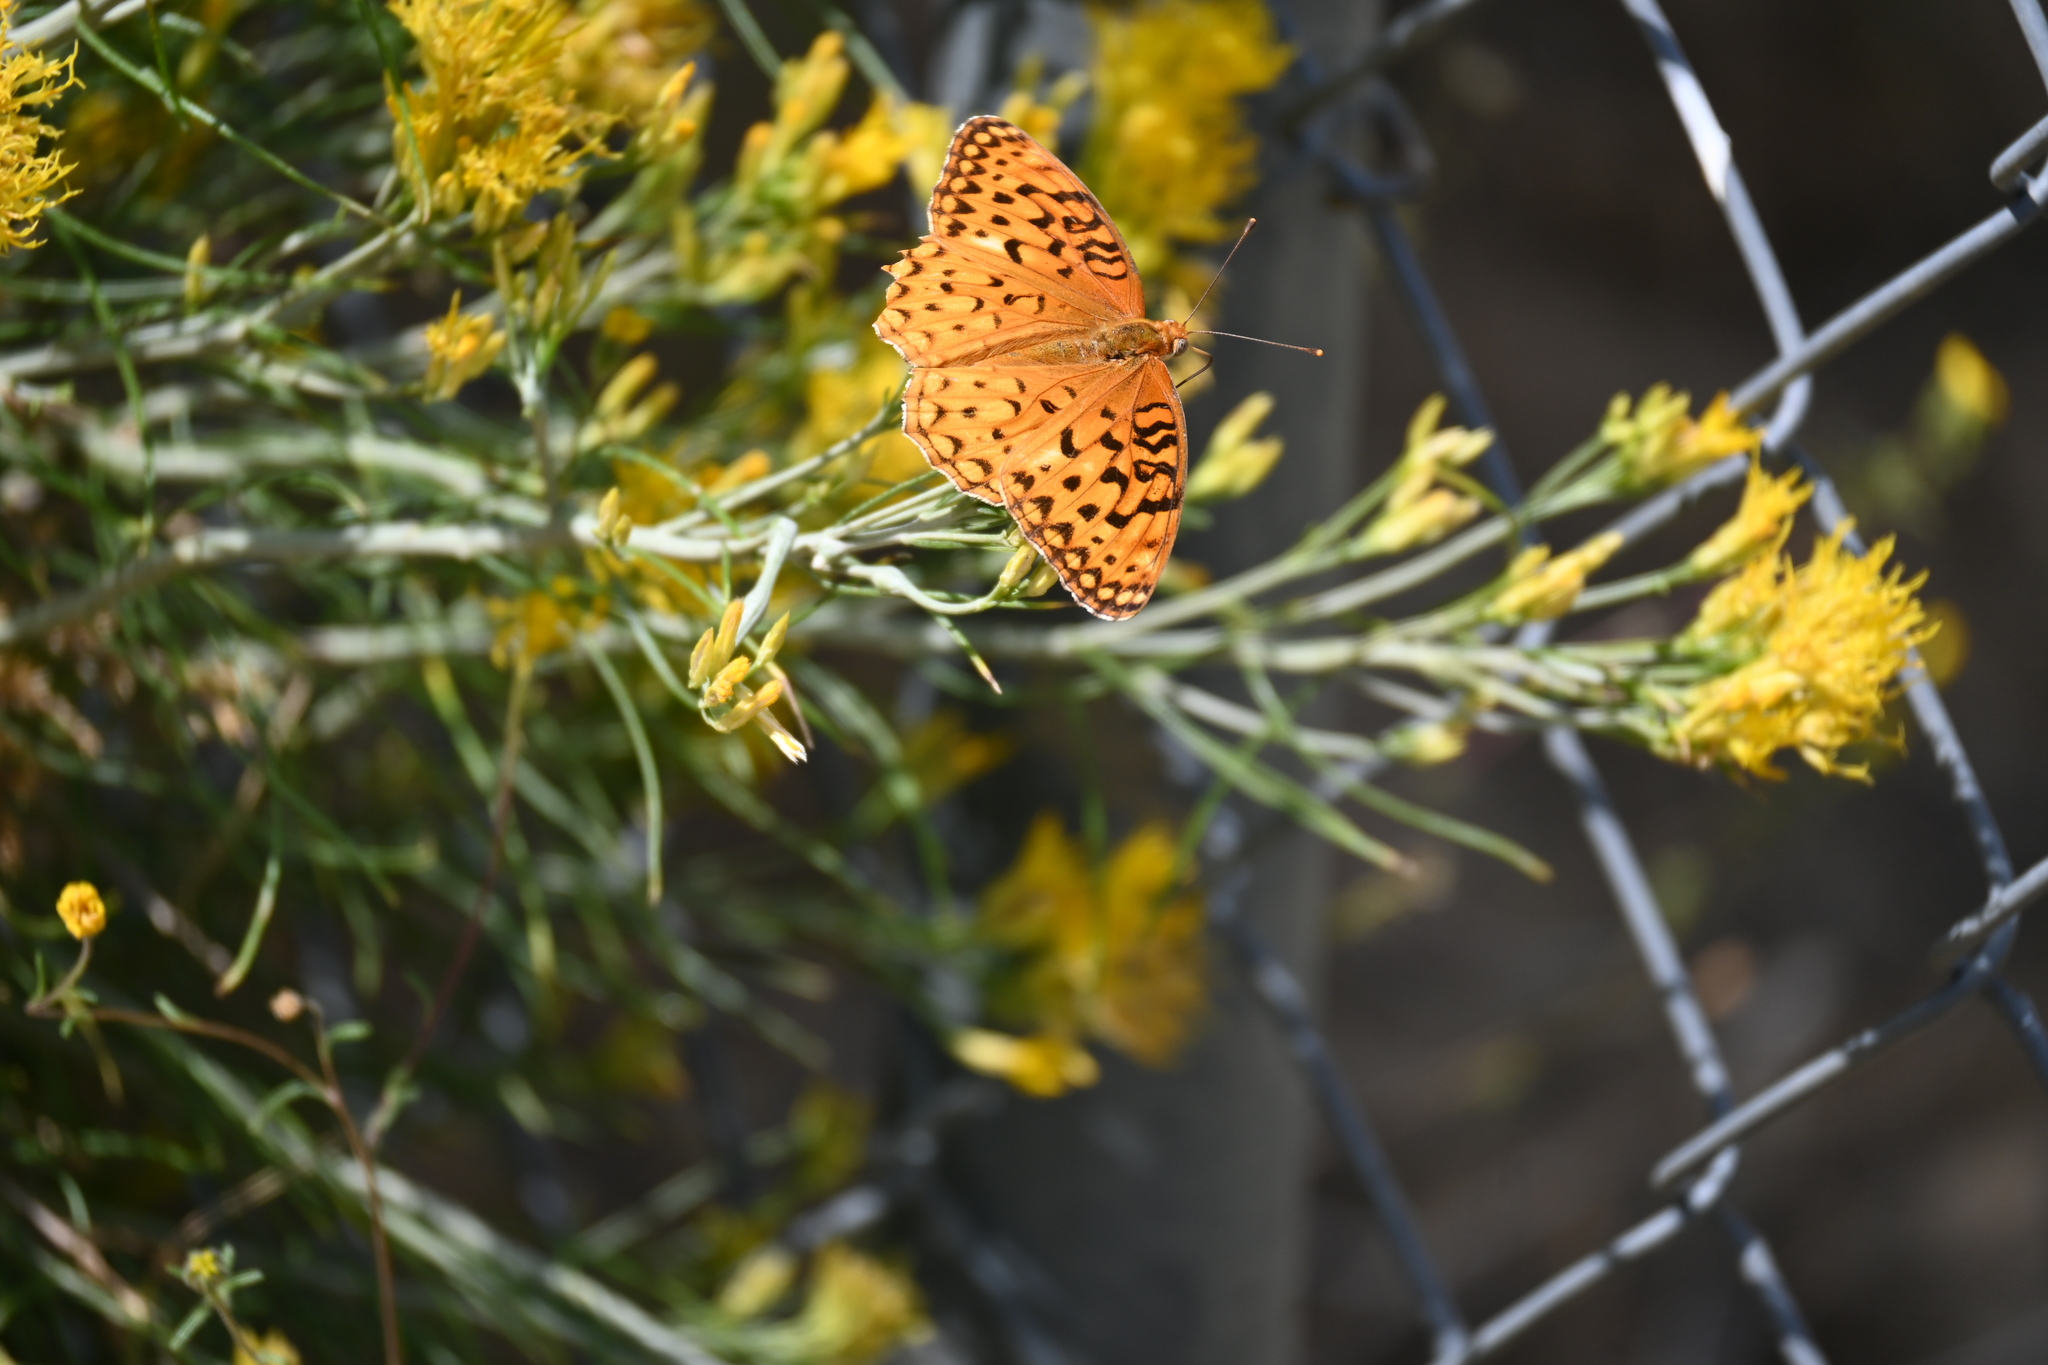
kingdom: Animalia
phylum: Arthropoda
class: Insecta
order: Lepidoptera
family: Nymphalidae
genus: Argynnis
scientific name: Argynnis coronis
